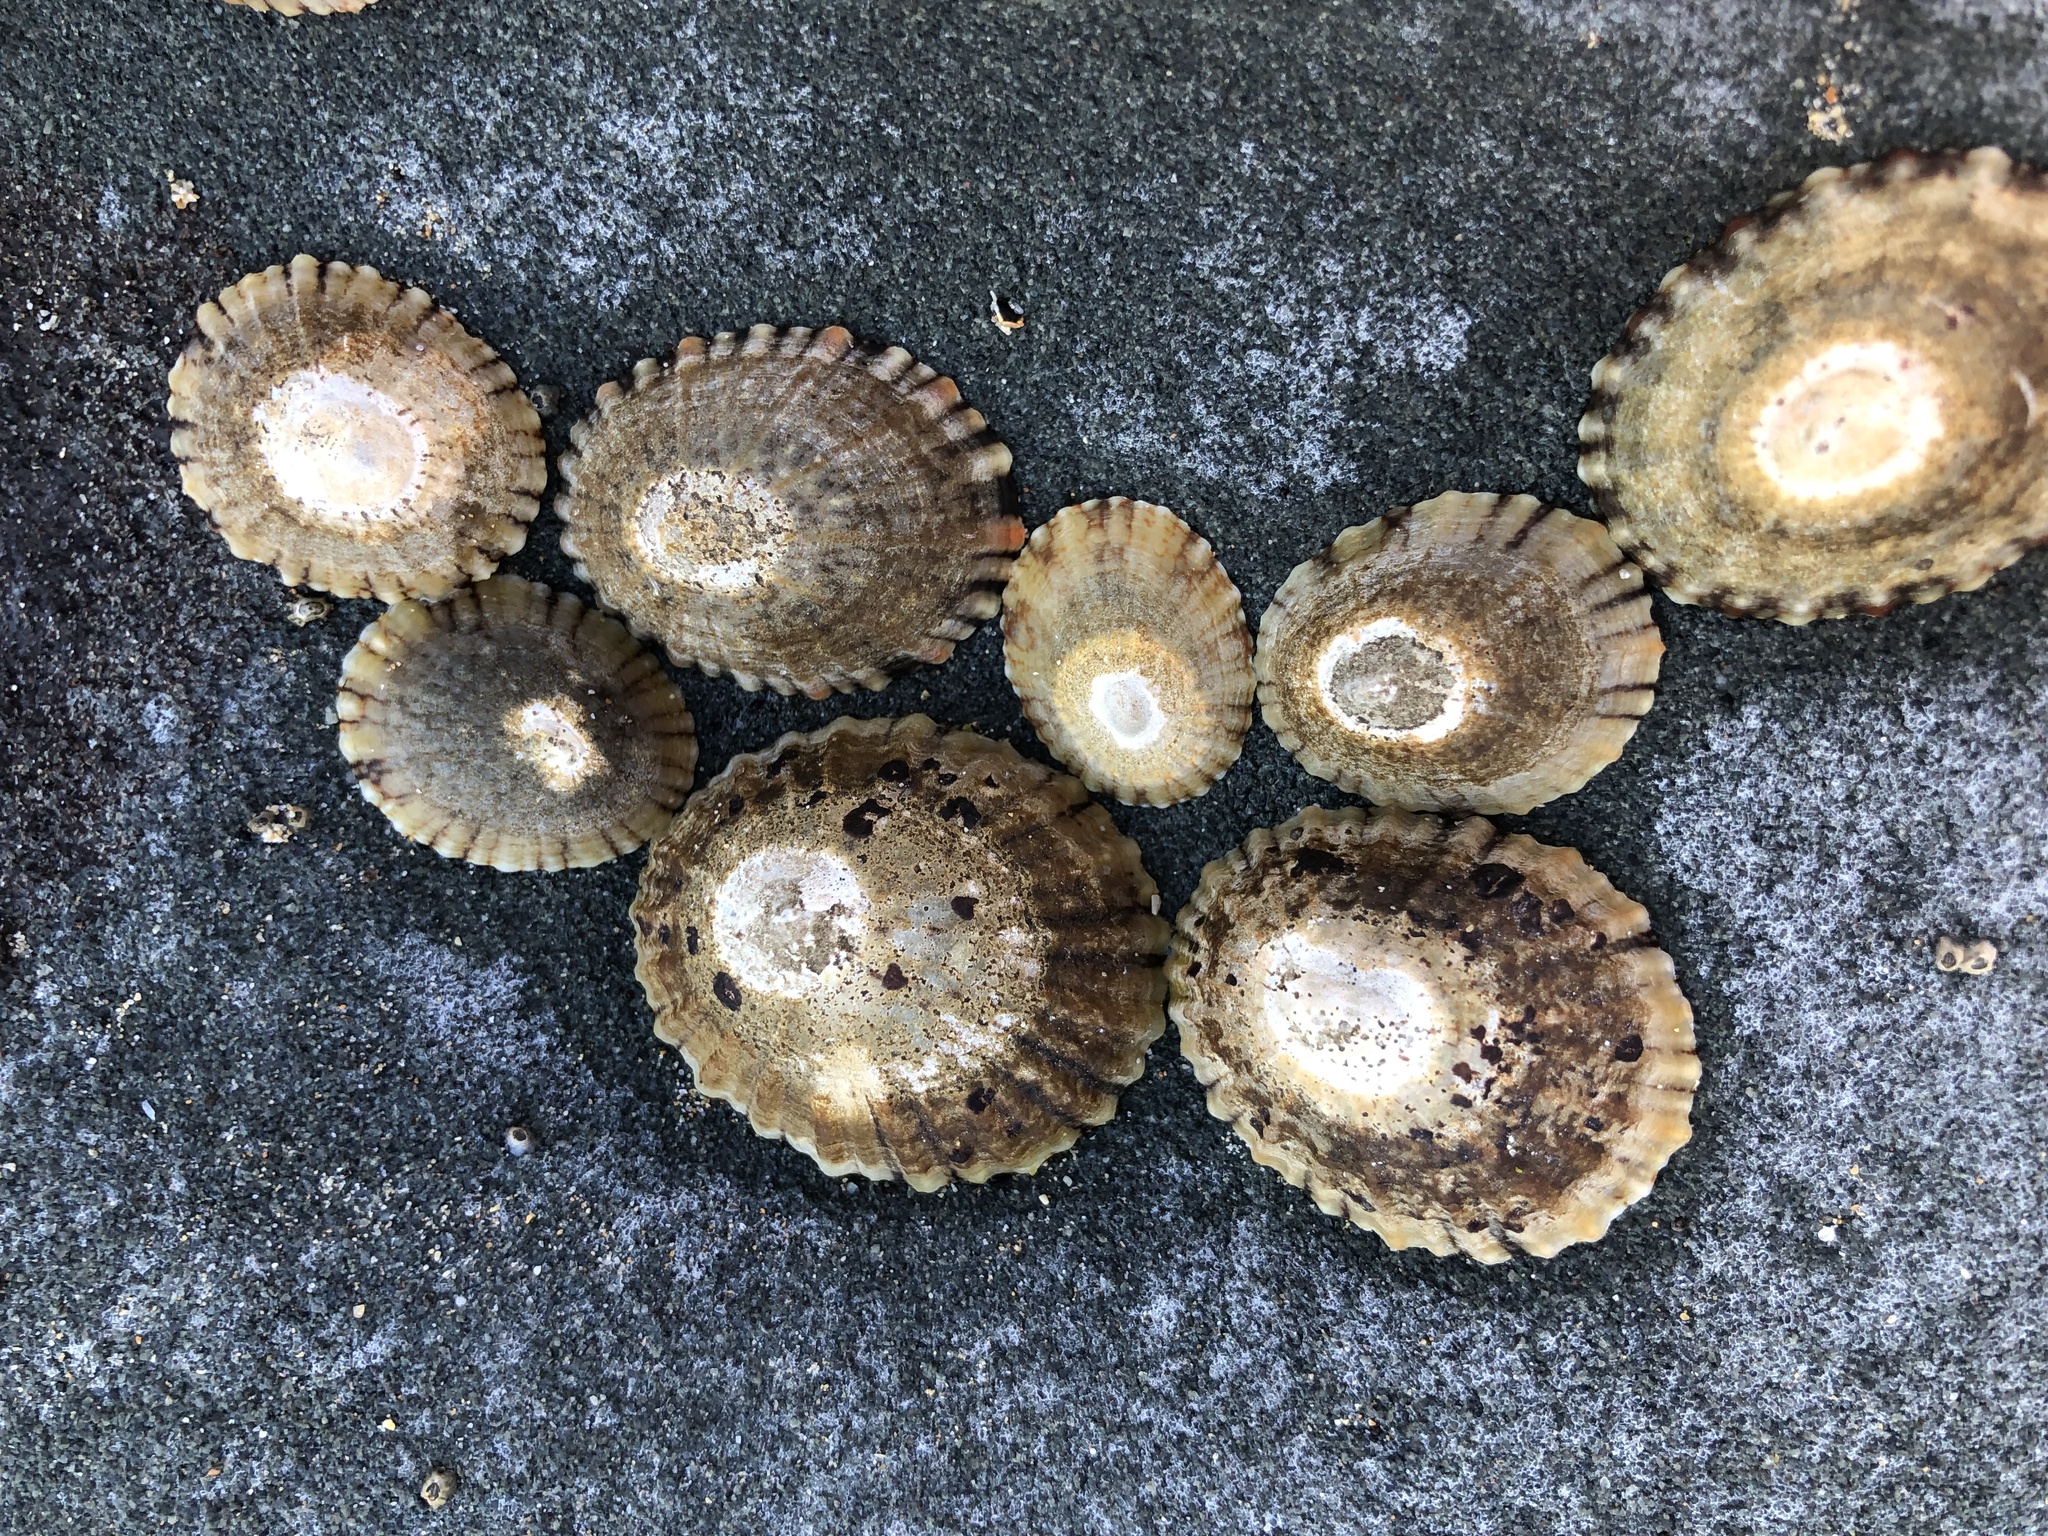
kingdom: Animalia
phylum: Mollusca
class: Gastropoda
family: Nacellidae
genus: Cellana
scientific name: Cellana tramoserica
